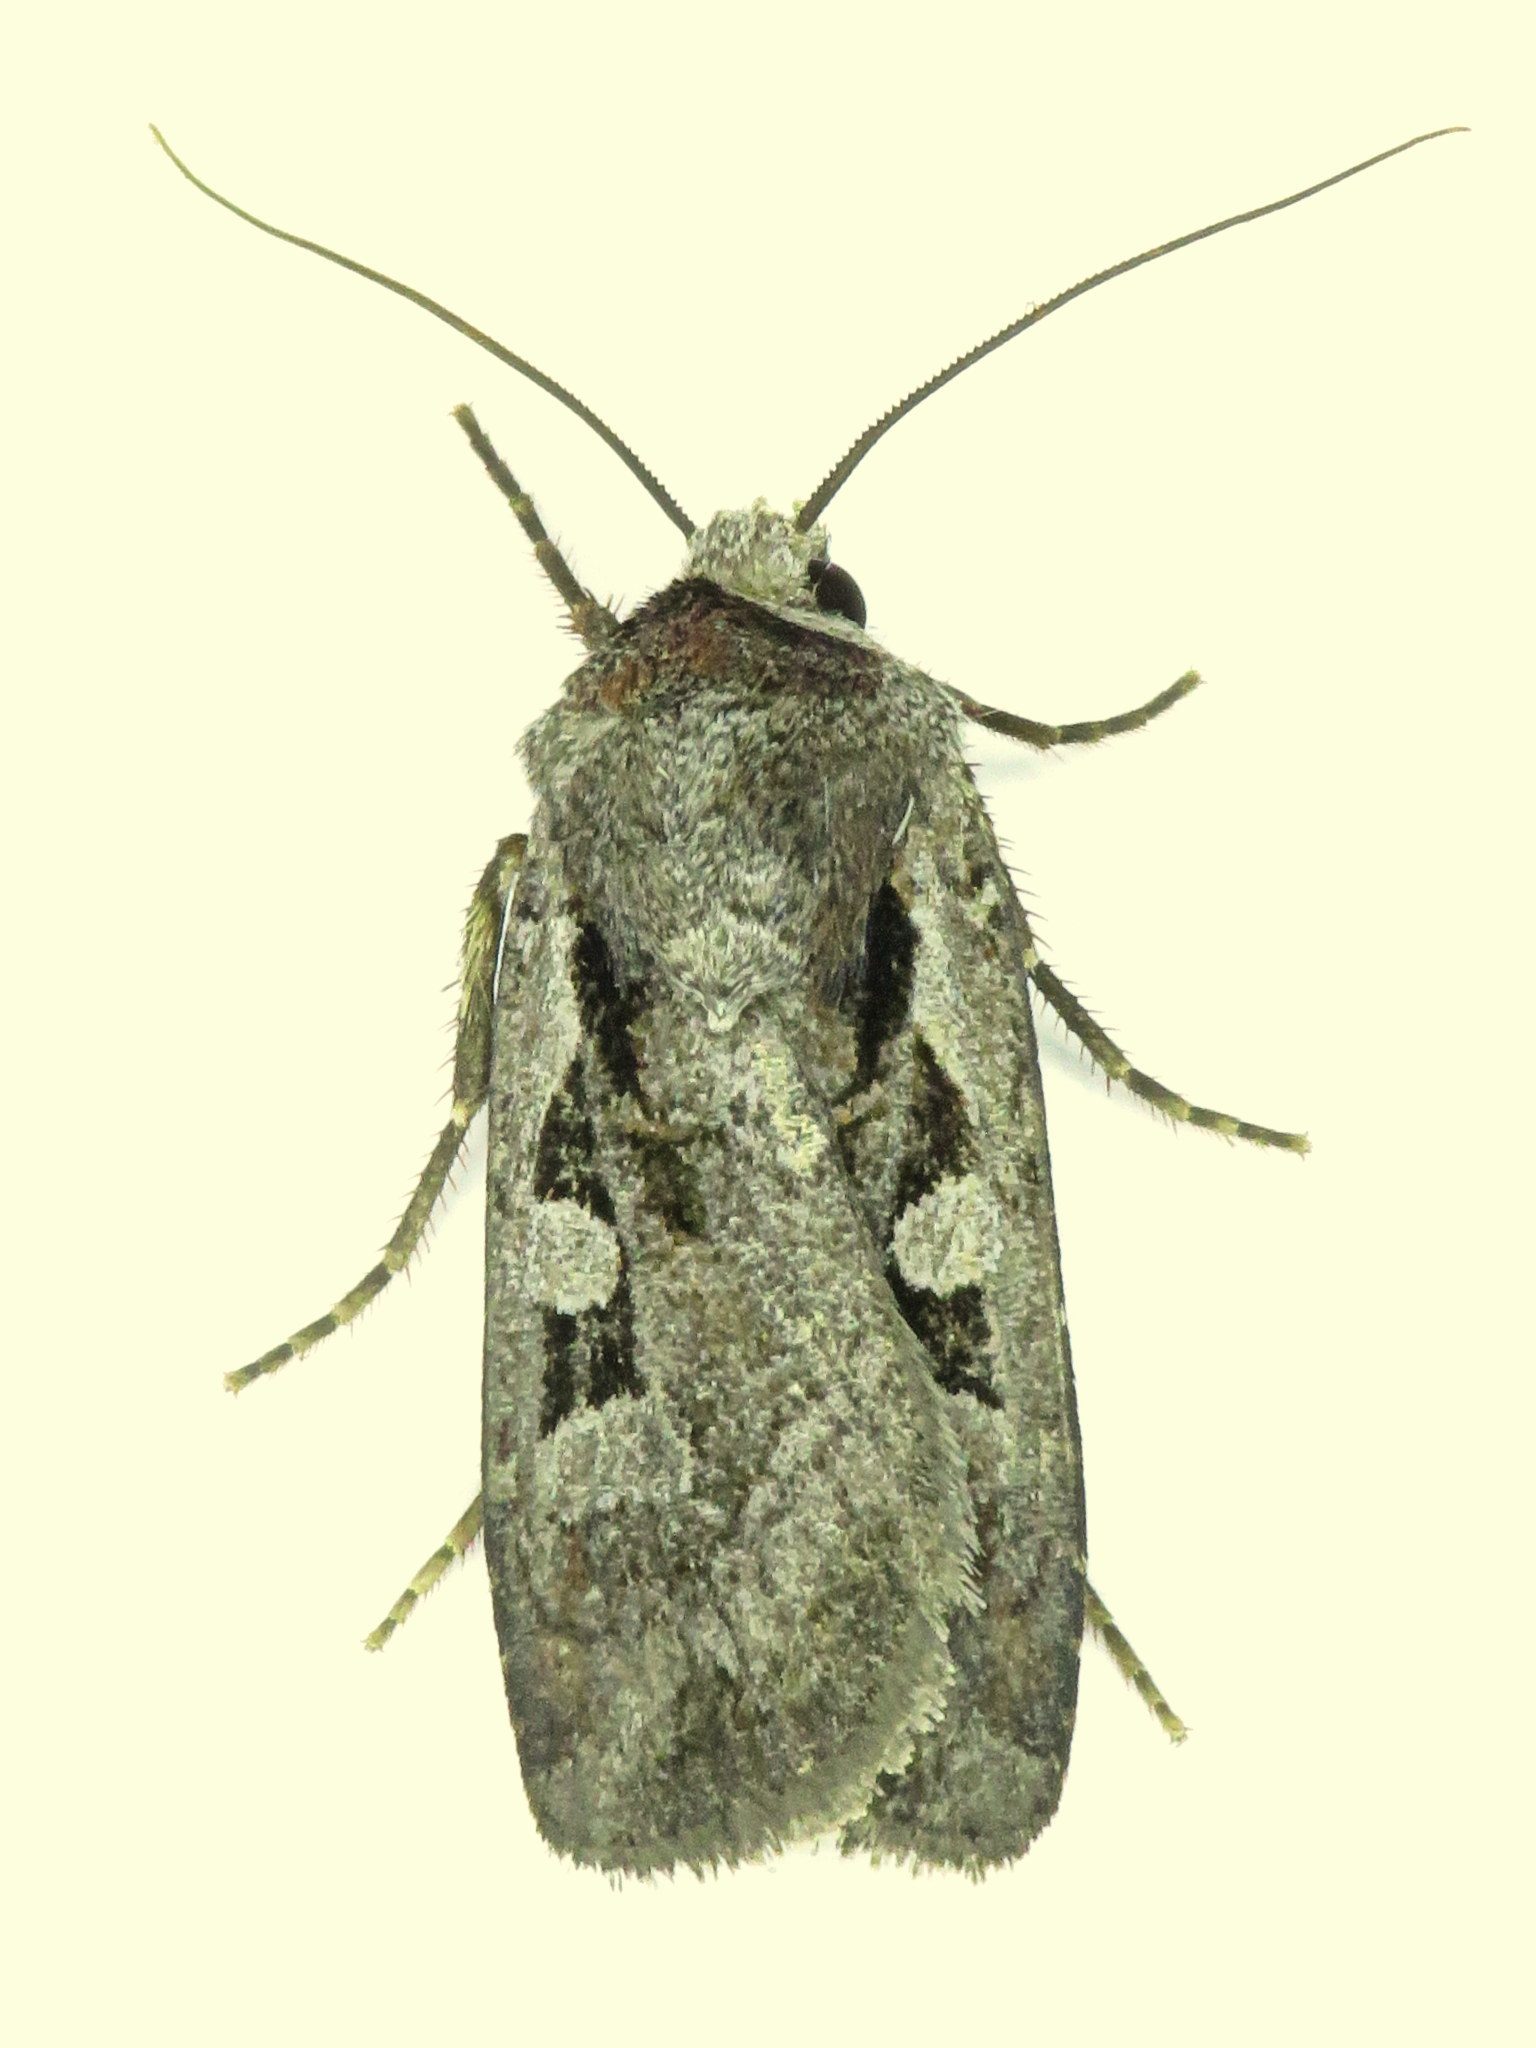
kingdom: Animalia
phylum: Arthropoda
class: Insecta
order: Lepidoptera
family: Noctuidae
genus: Euxoa
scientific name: Euxoa redimicula
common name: Fillet dart
